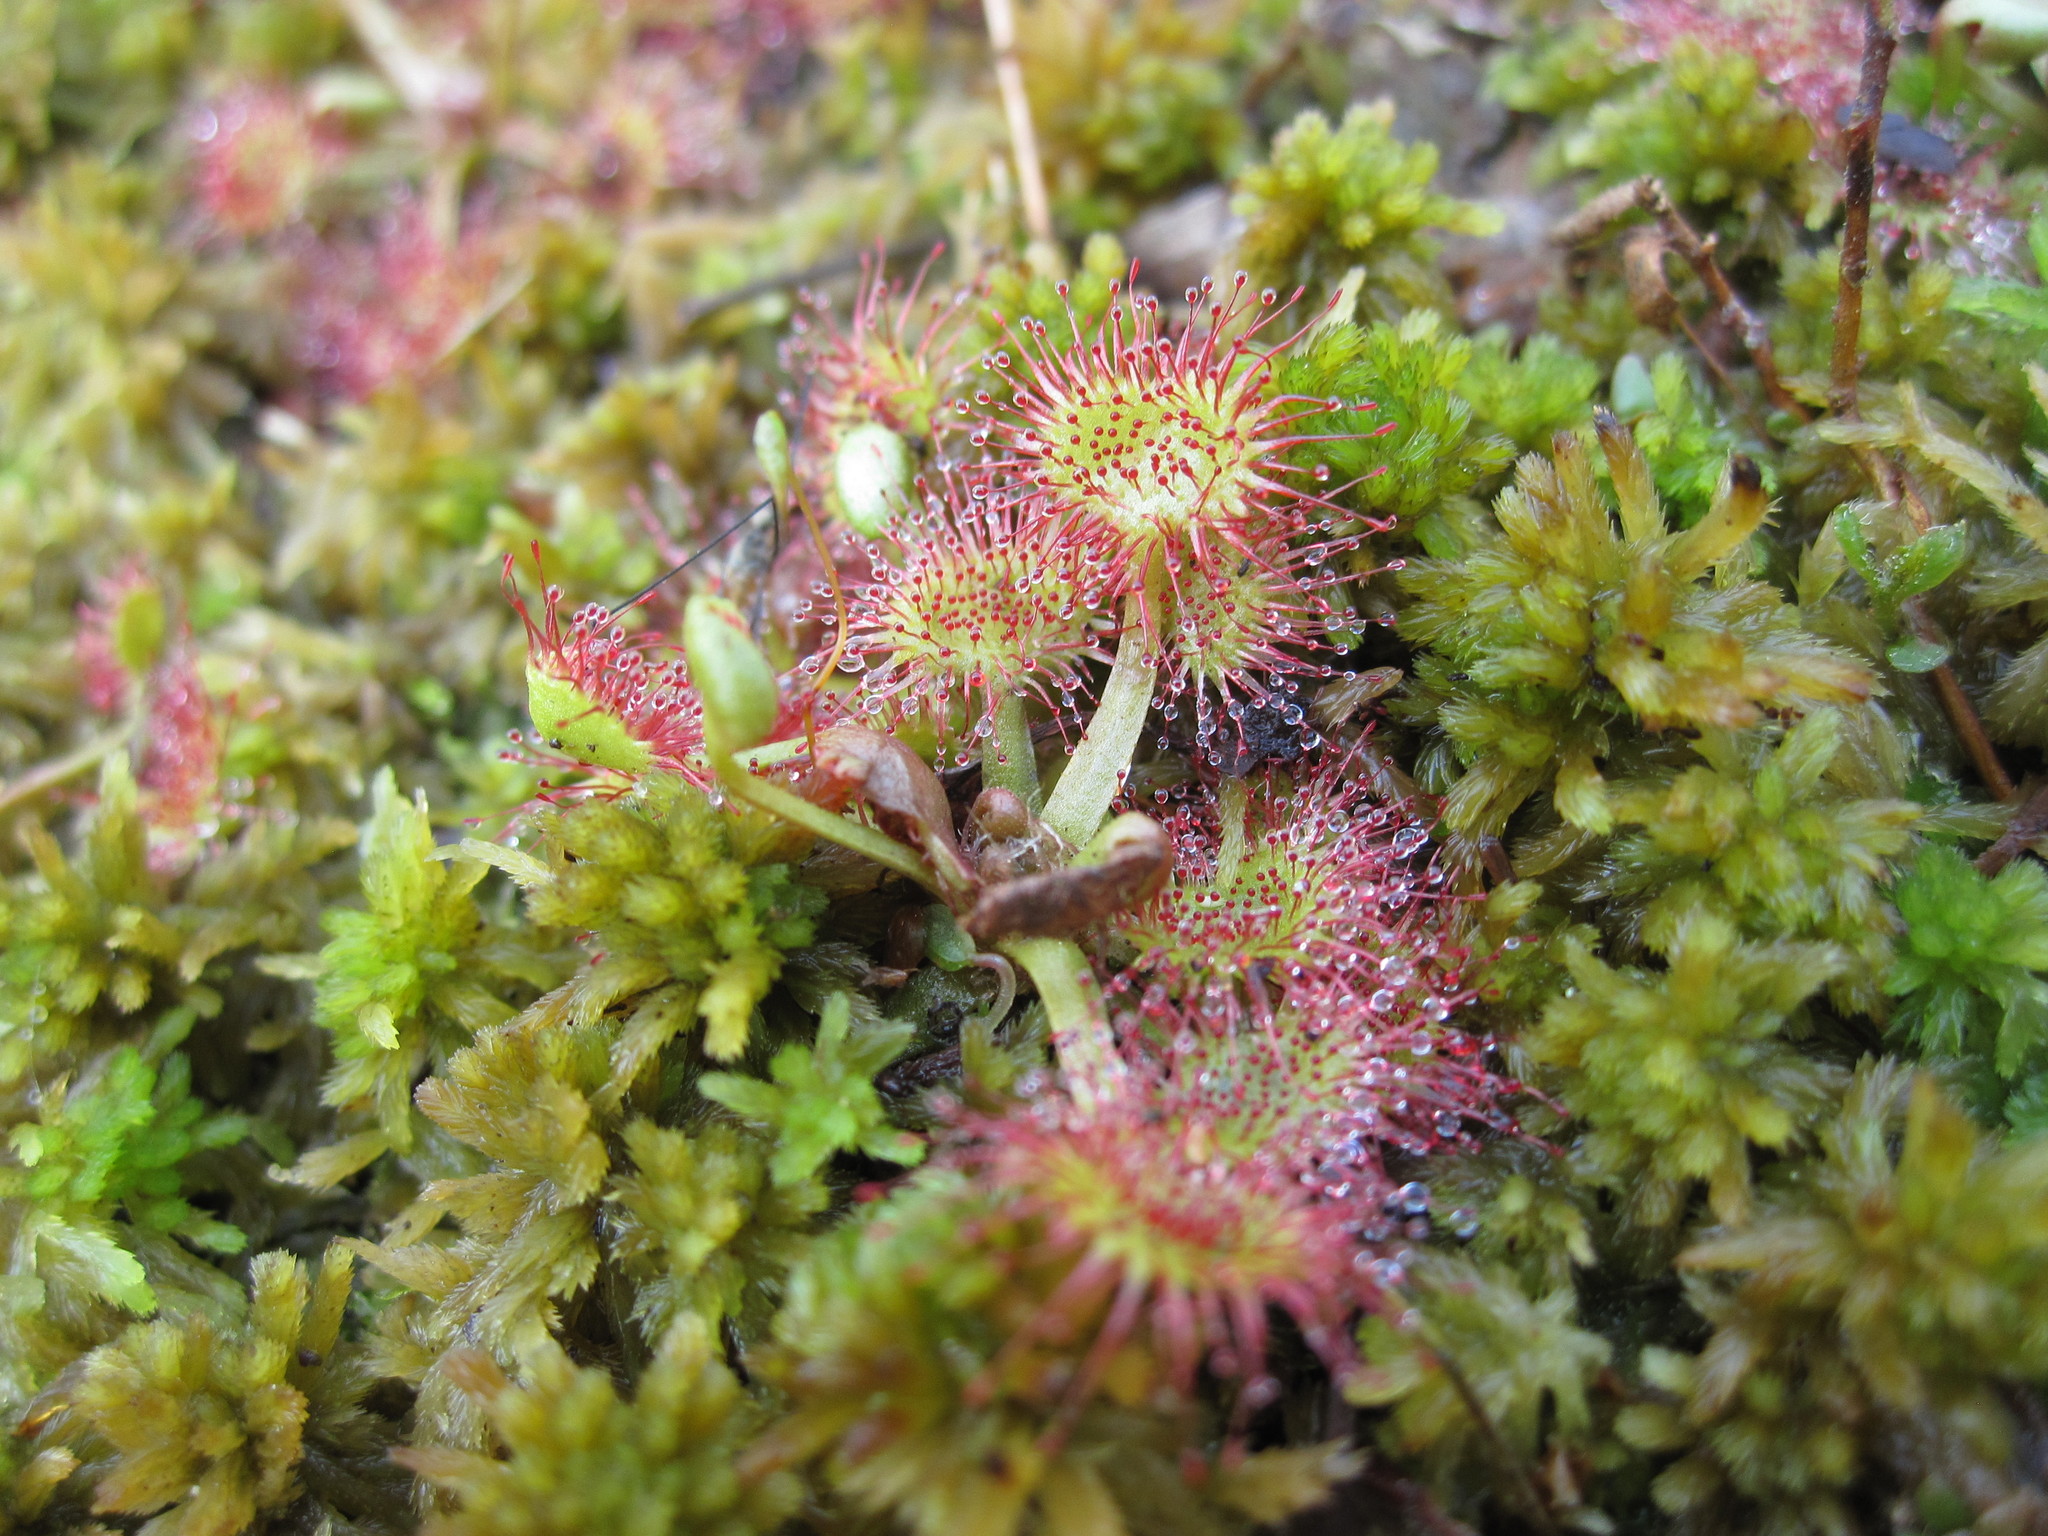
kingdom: Plantae
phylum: Tracheophyta
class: Magnoliopsida
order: Caryophyllales
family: Droseraceae
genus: Drosera
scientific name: Drosera rotundifolia
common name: Round-leaved sundew
